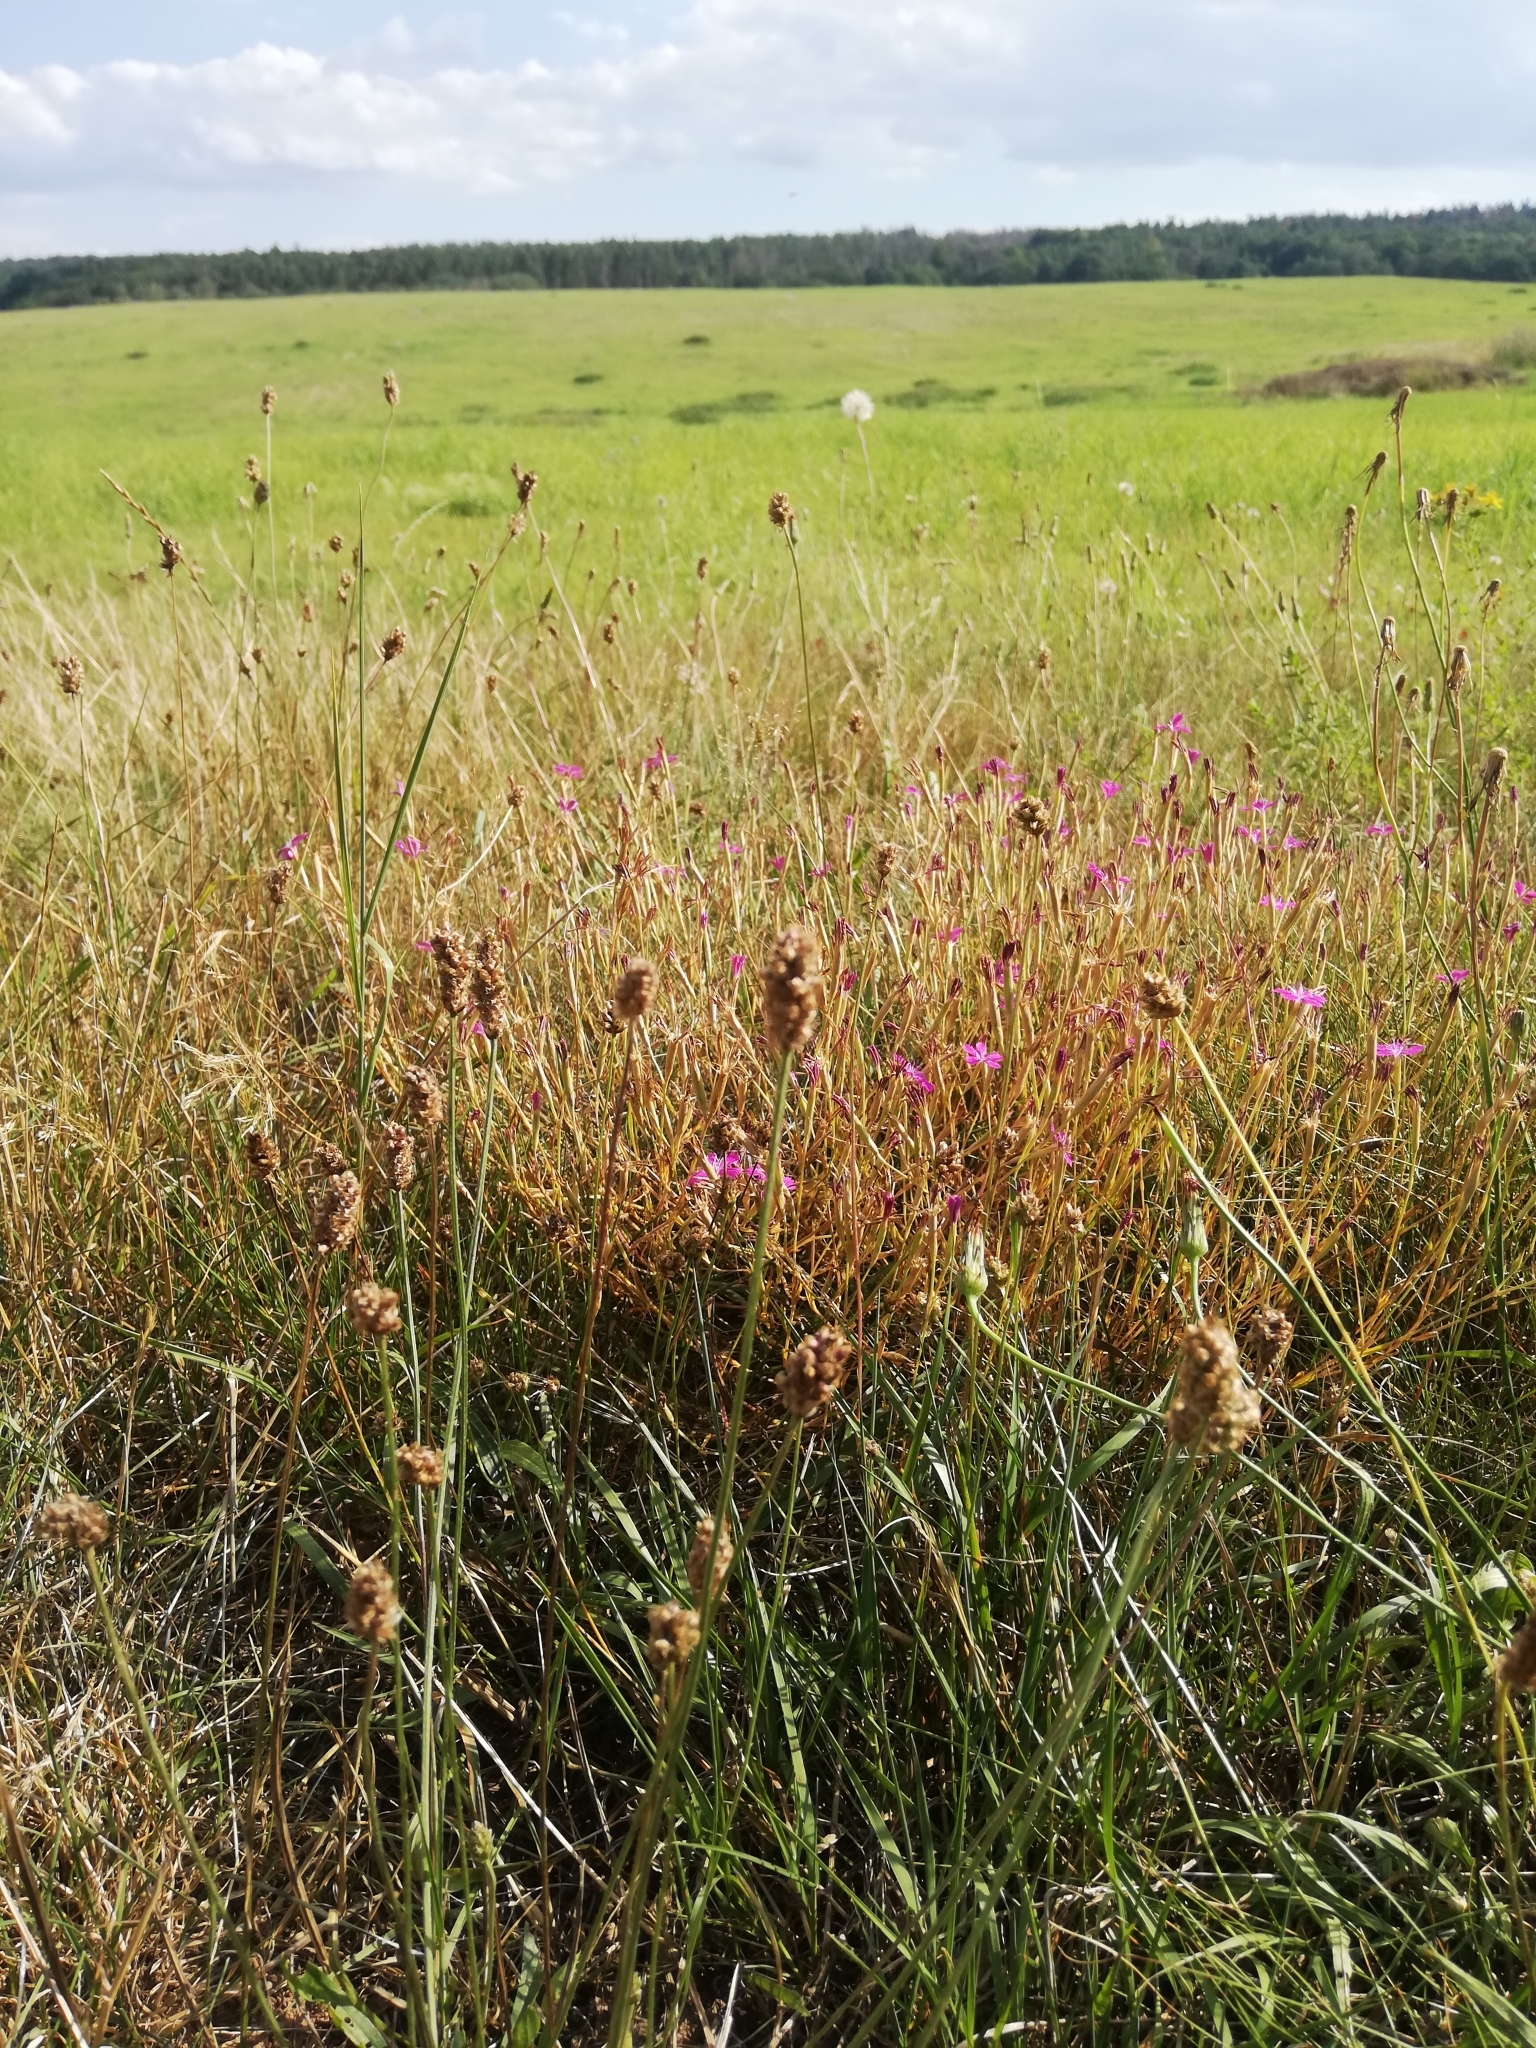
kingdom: Plantae
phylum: Tracheophyta
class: Magnoliopsida
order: Caryophyllales
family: Caryophyllaceae
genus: Dianthus
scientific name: Dianthus deltoides
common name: Maiden pink
